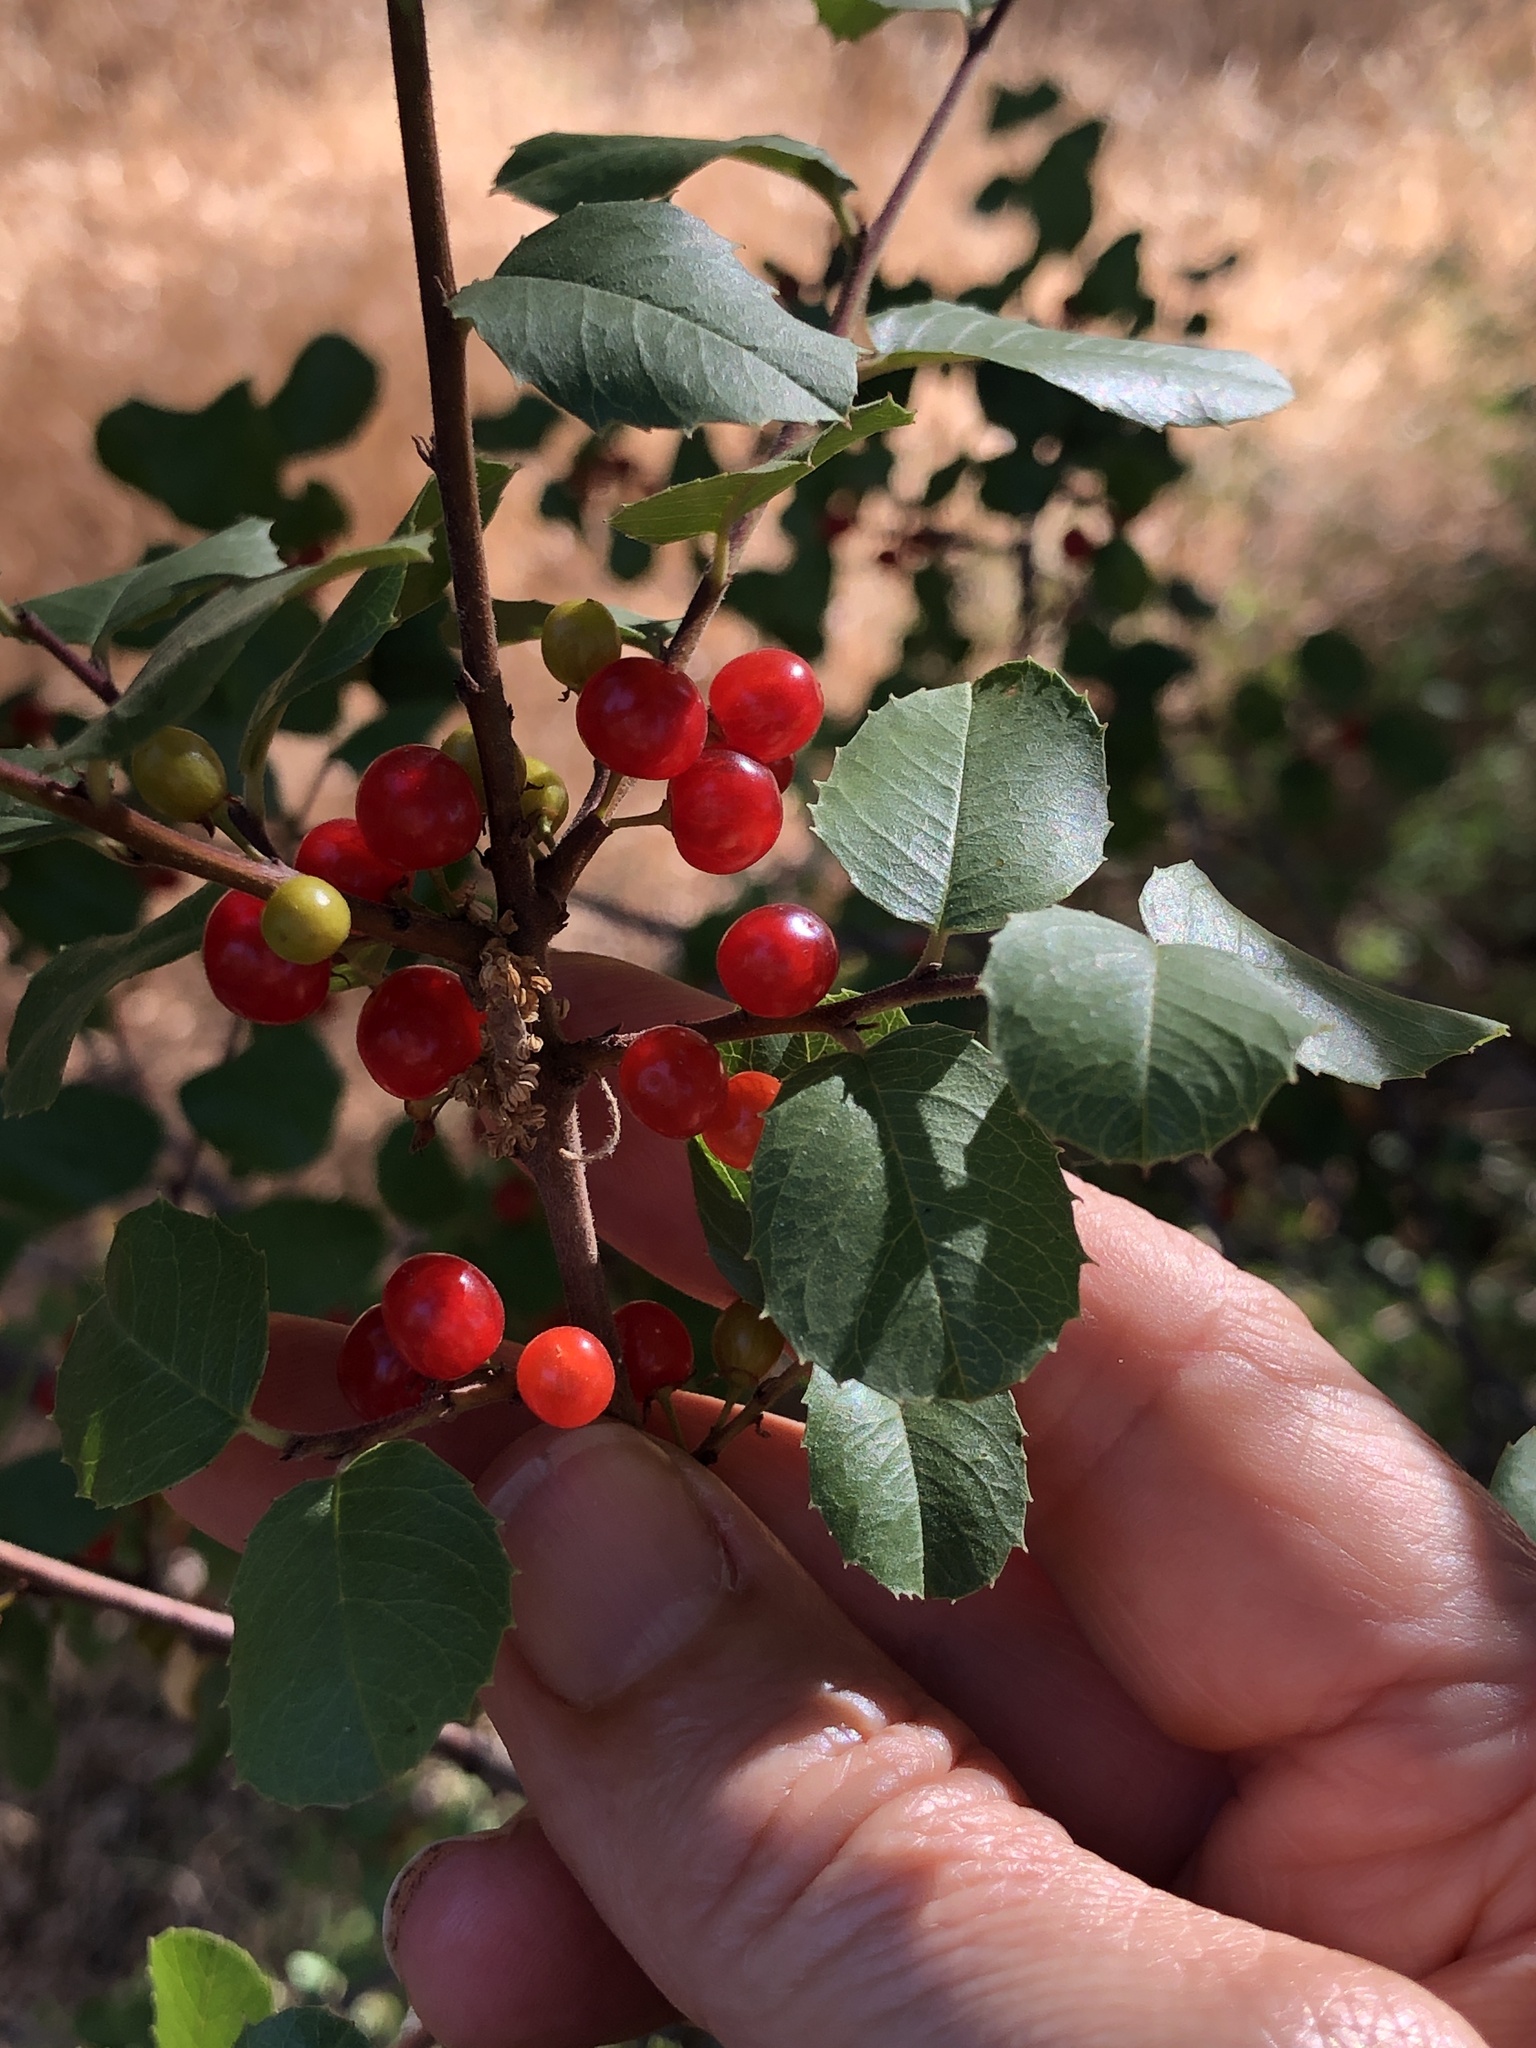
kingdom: Plantae
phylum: Tracheophyta
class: Magnoliopsida
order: Rosales
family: Rhamnaceae
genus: Endotropis
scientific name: Endotropis crocea
